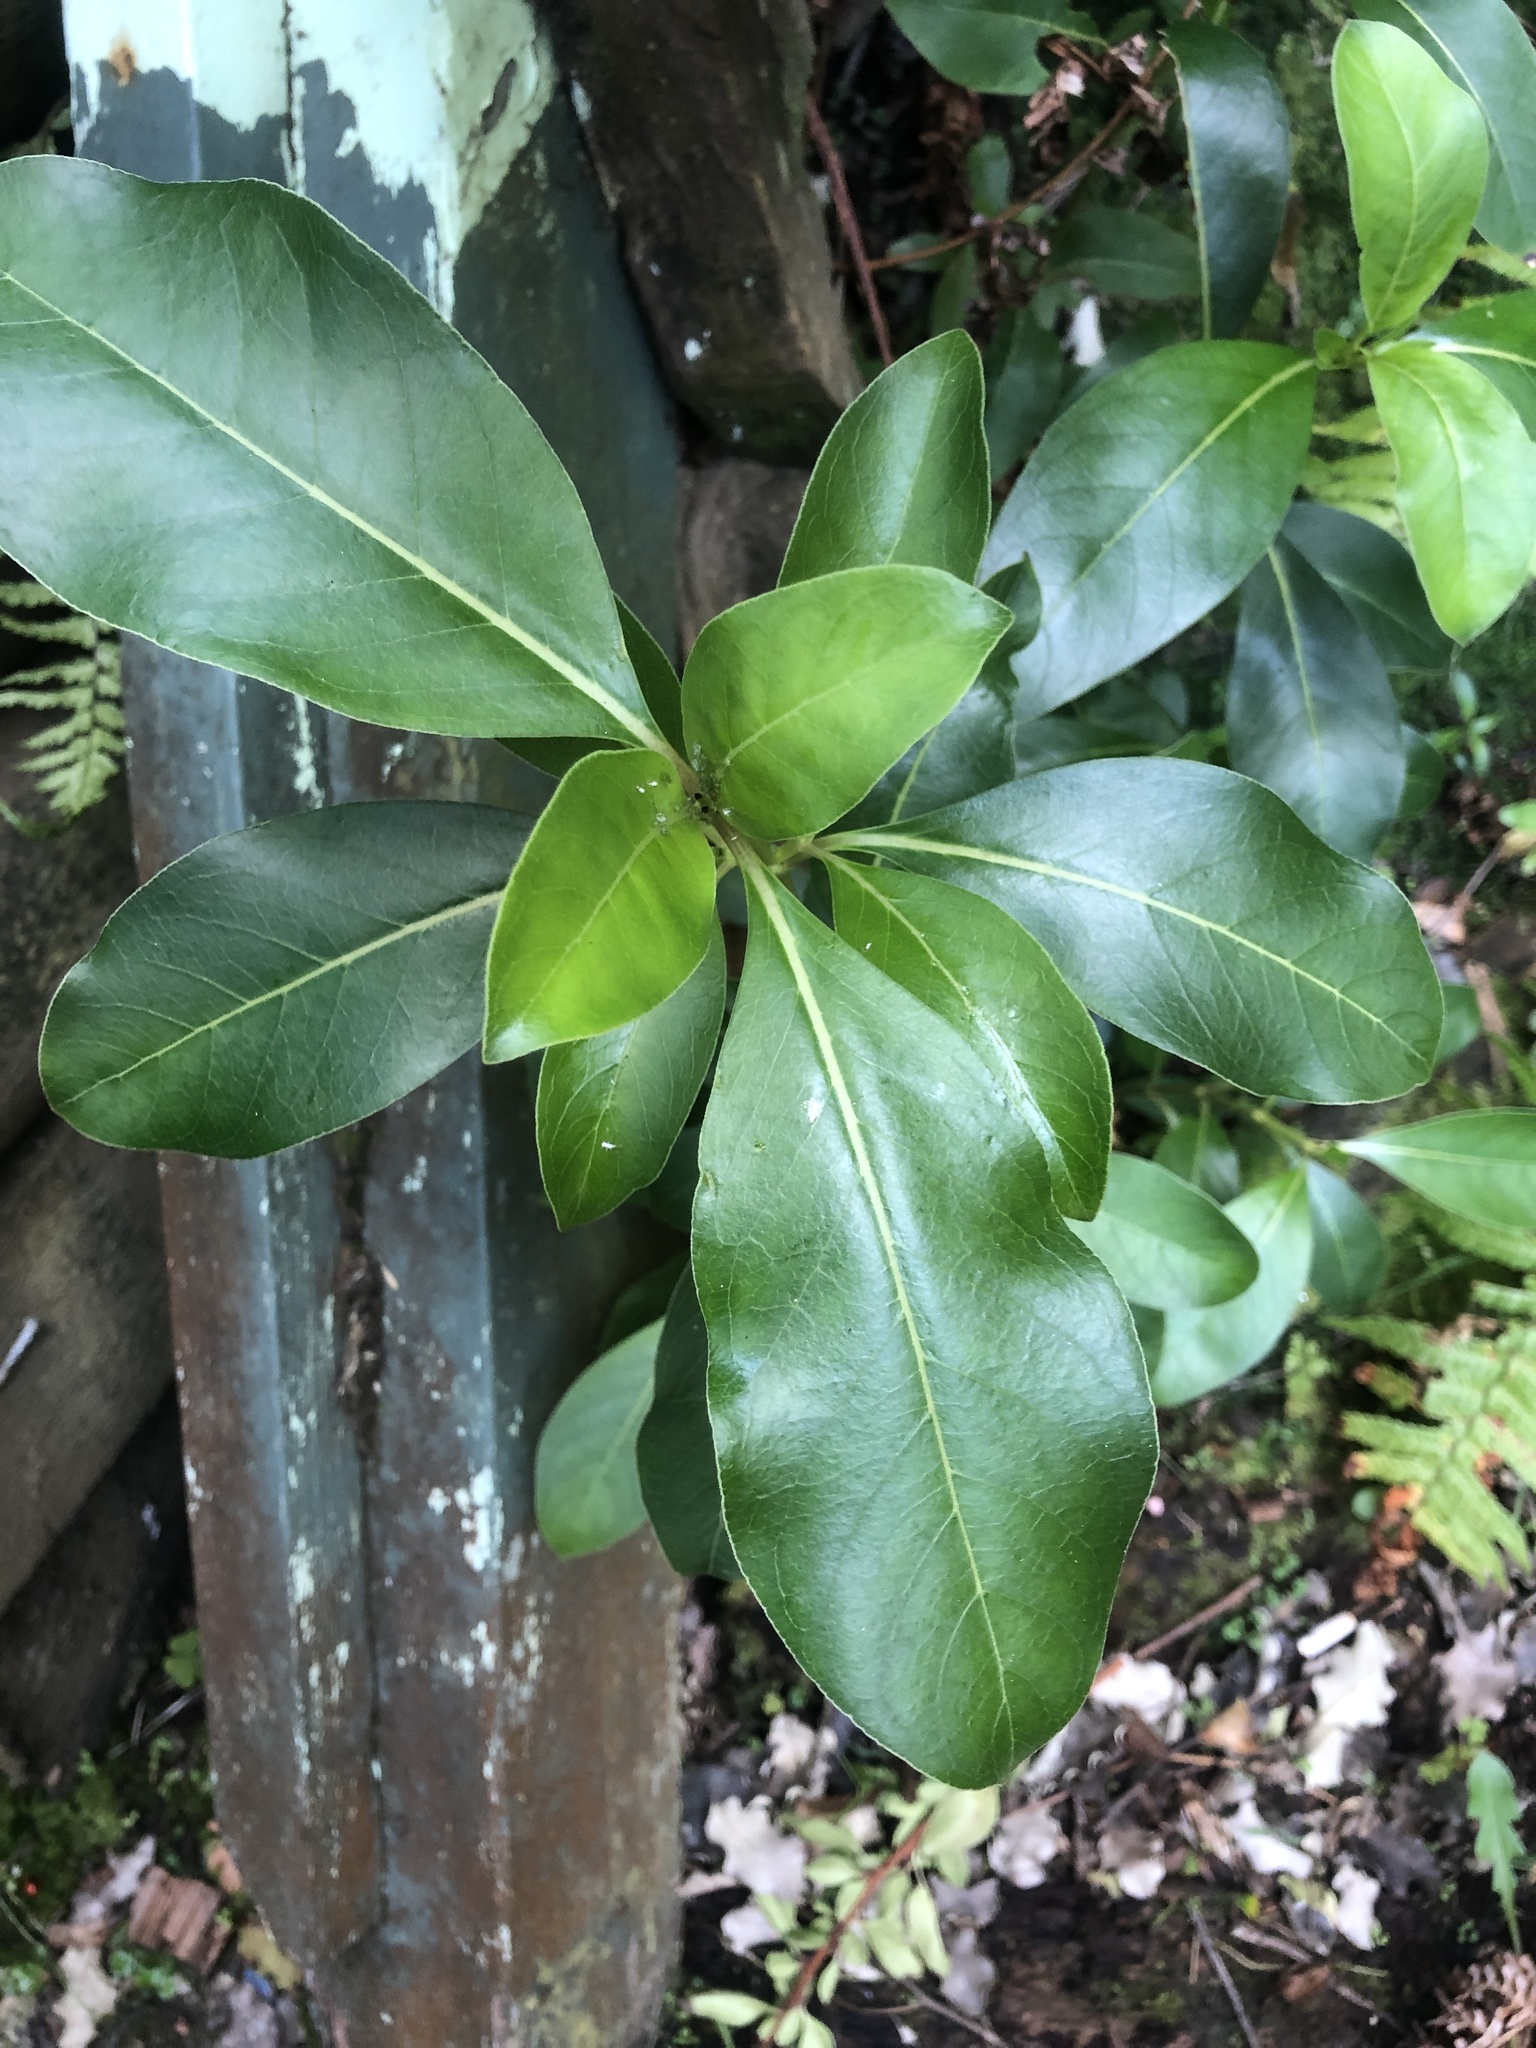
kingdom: Plantae
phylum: Tracheophyta
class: Magnoliopsida
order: Gentianales
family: Rubiaceae
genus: Coprosma
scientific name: Coprosma robusta
